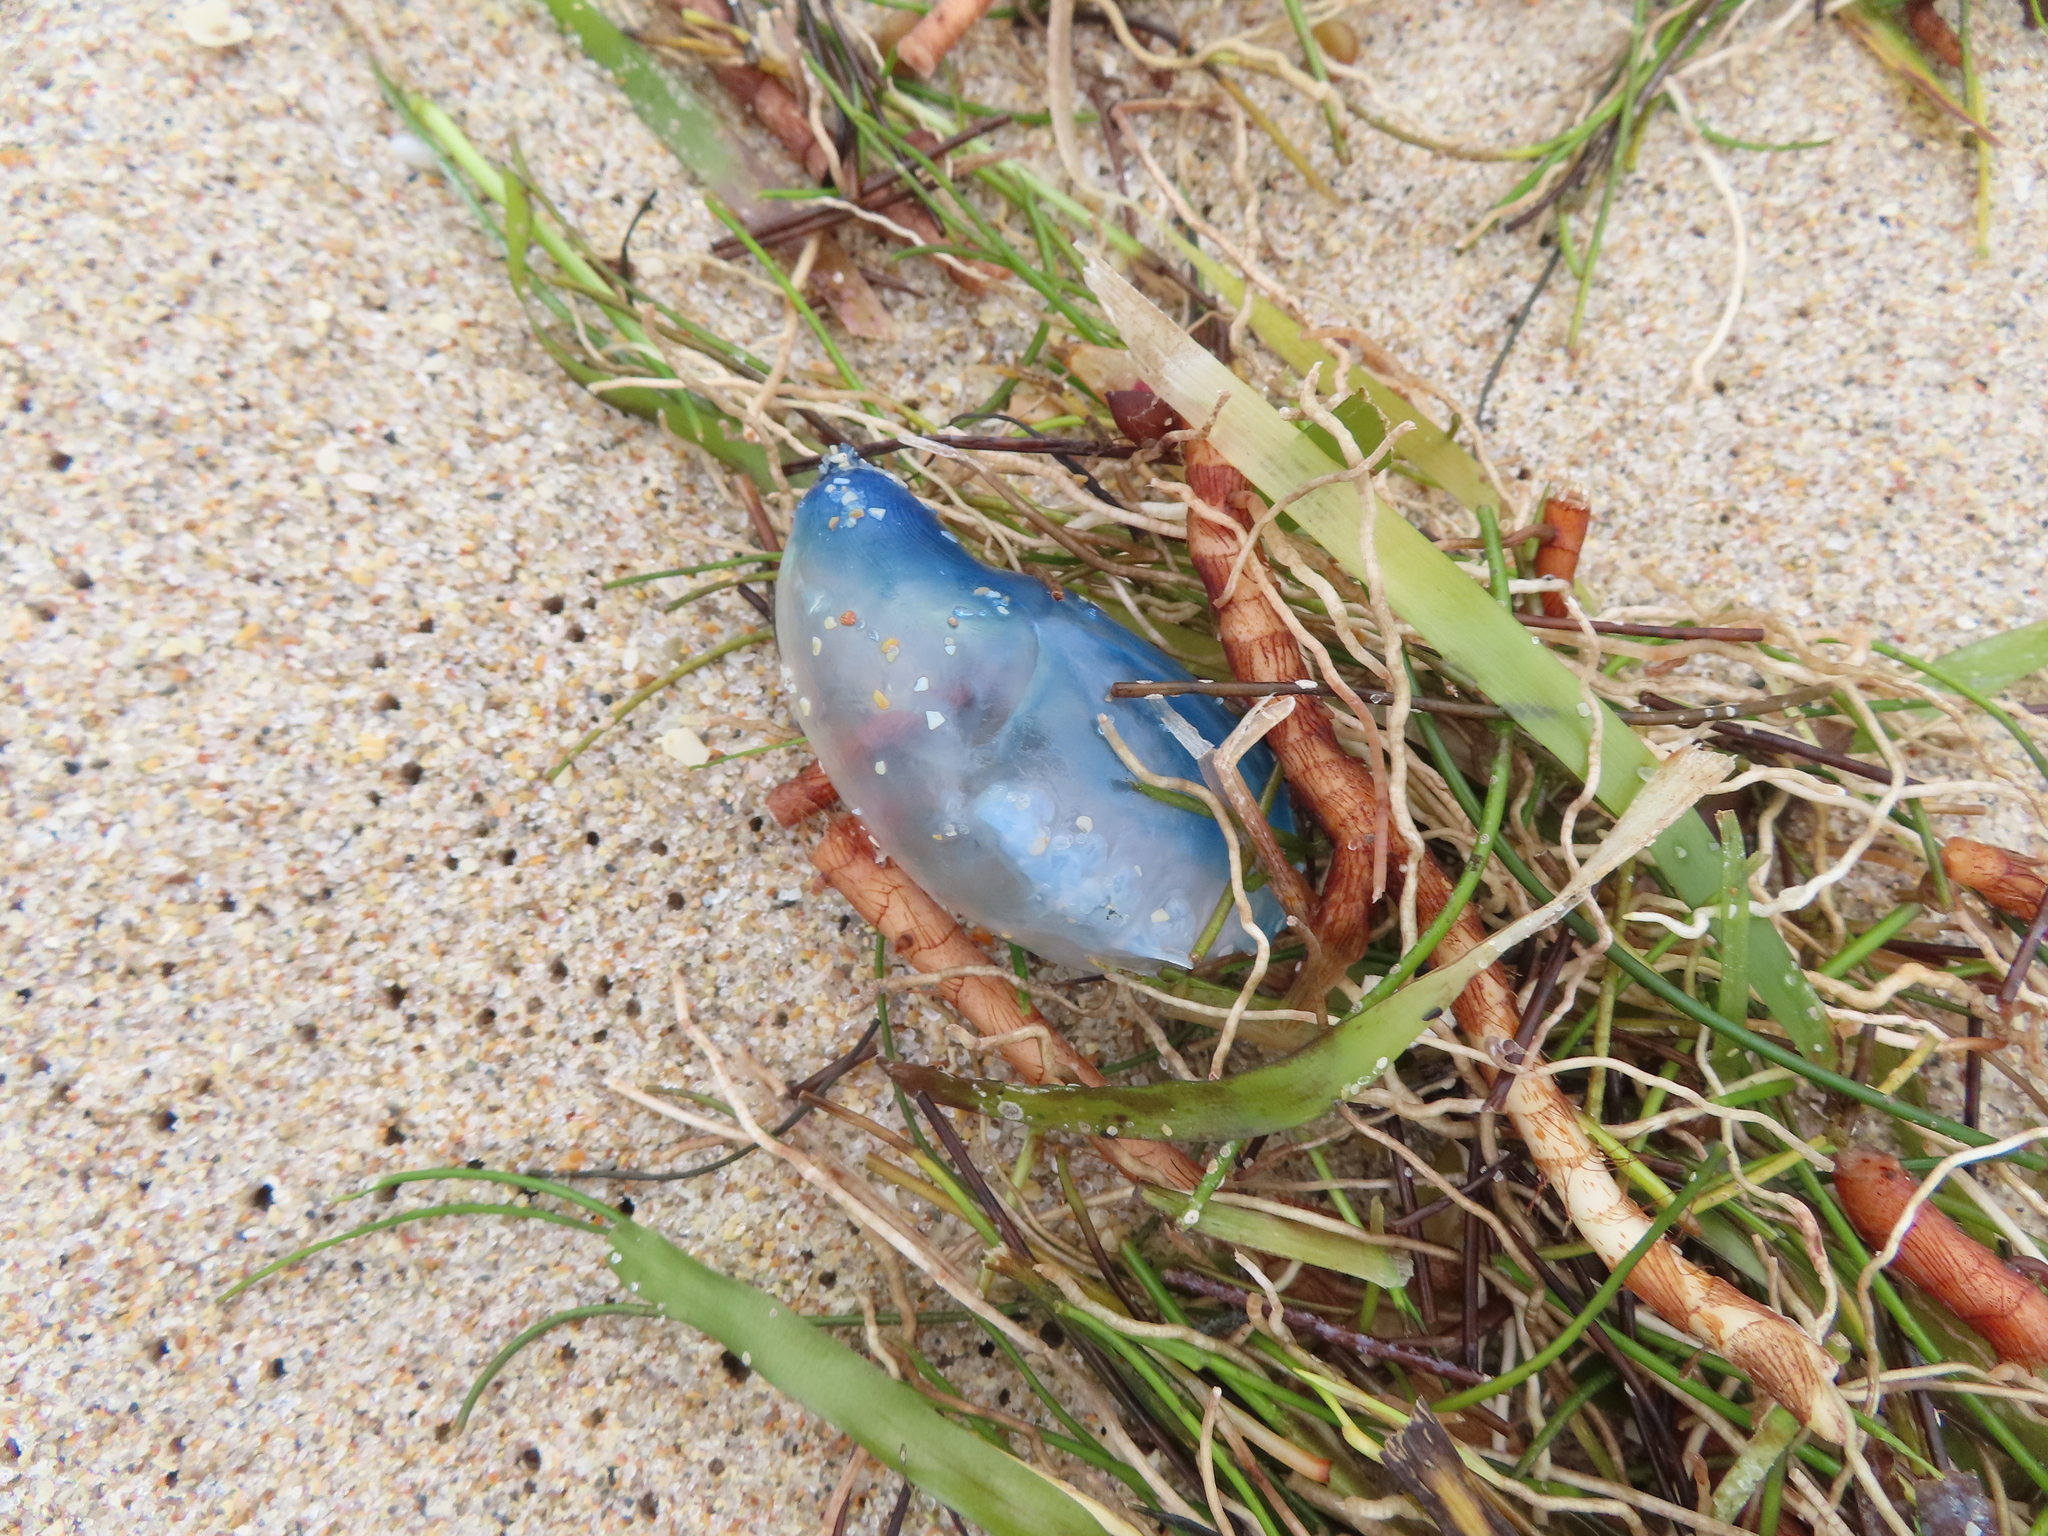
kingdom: Animalia
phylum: Cnidaria
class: Hydrozoa
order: Siphonophorae
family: Physaliidae
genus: Physalia
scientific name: Physalia physalis
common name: Portuguese man-of-war
